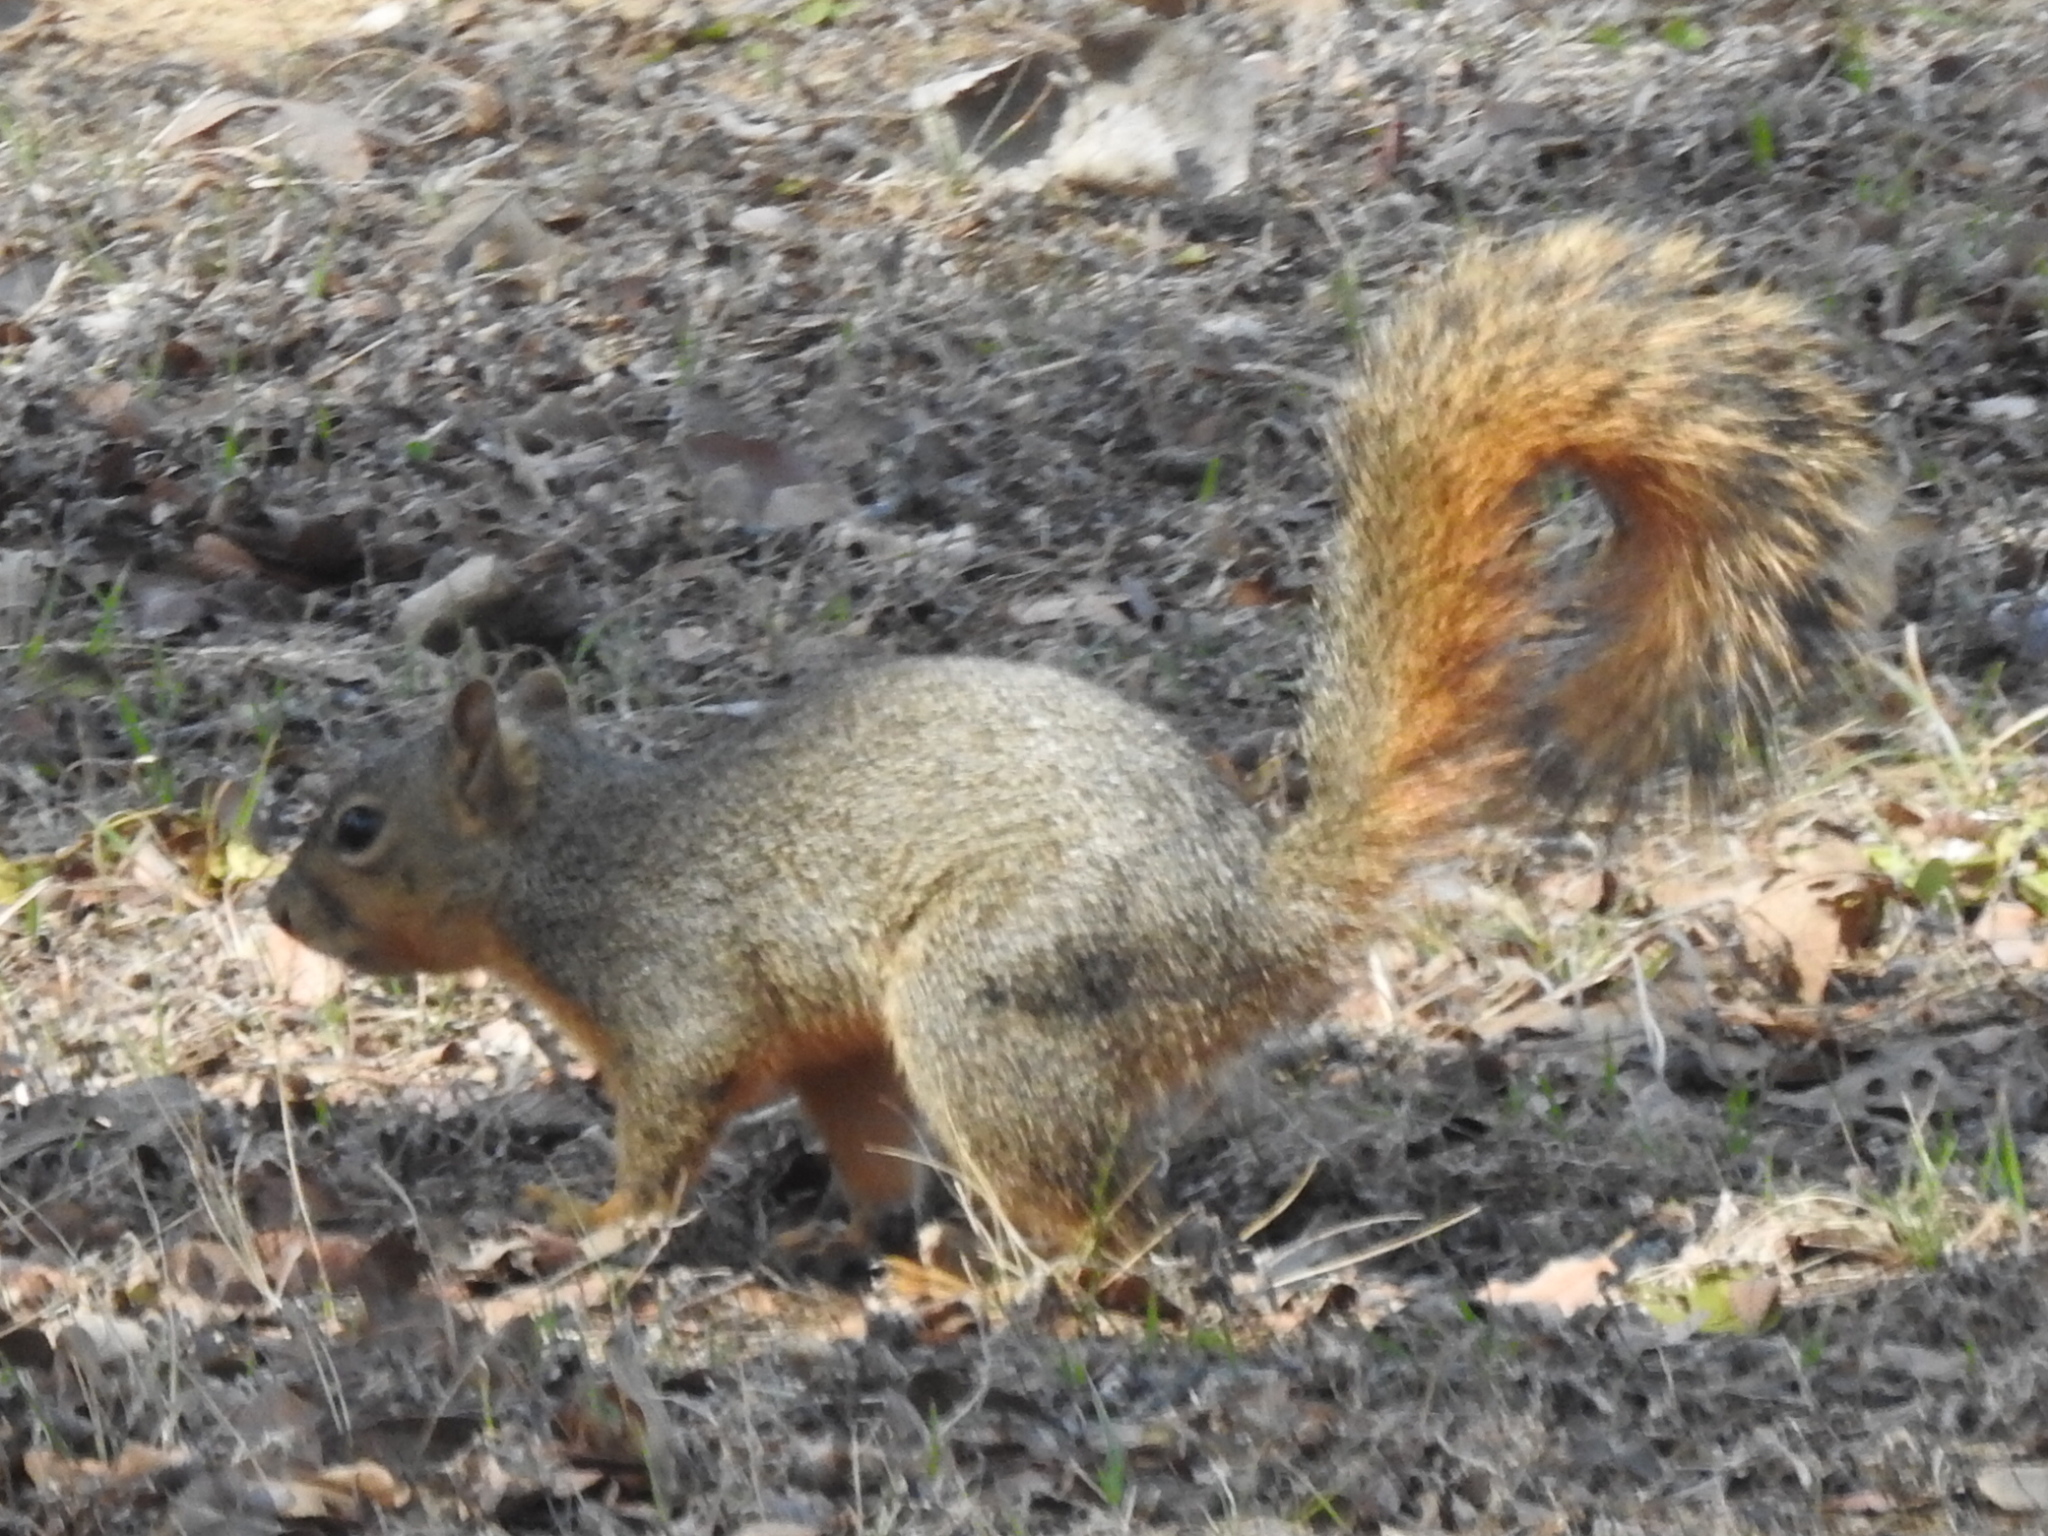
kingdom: Animalia
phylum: Chordata
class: Mammalia
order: Rodentia
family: Sciuridae
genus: Sciurus
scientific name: Sciurus niger
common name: Fox squirrel
